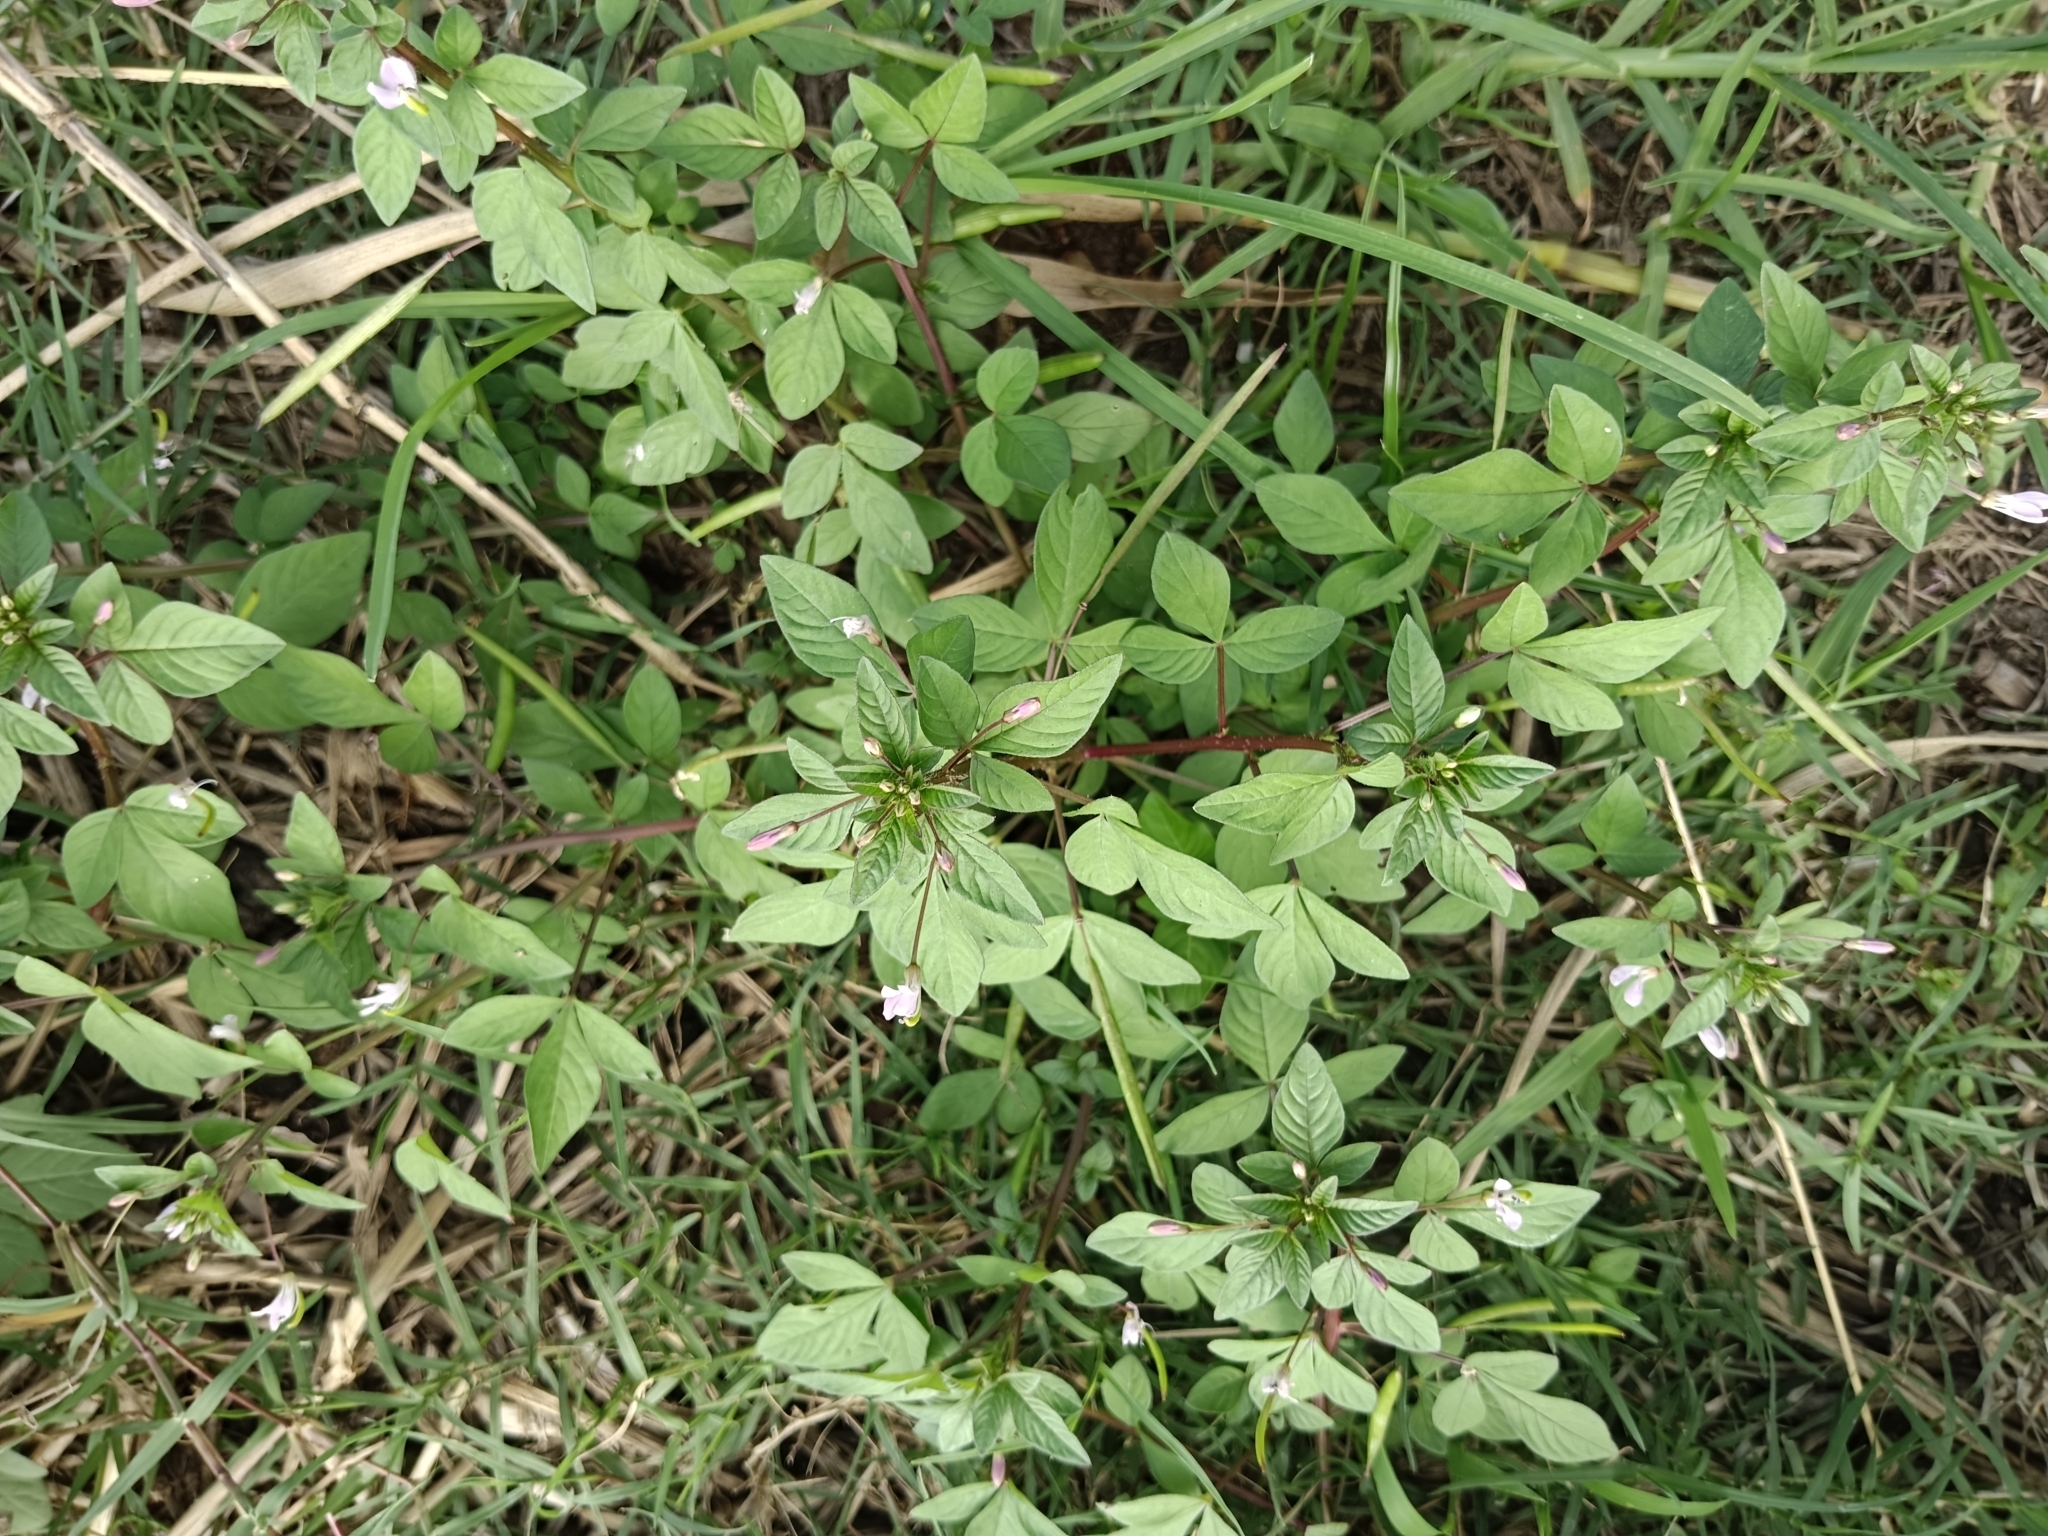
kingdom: Plantae
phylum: Tracheophyta
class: Magnoliopsida
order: Brassicales
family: Cleomaceae
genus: Sieruela
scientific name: Sieruela rutidosperma
